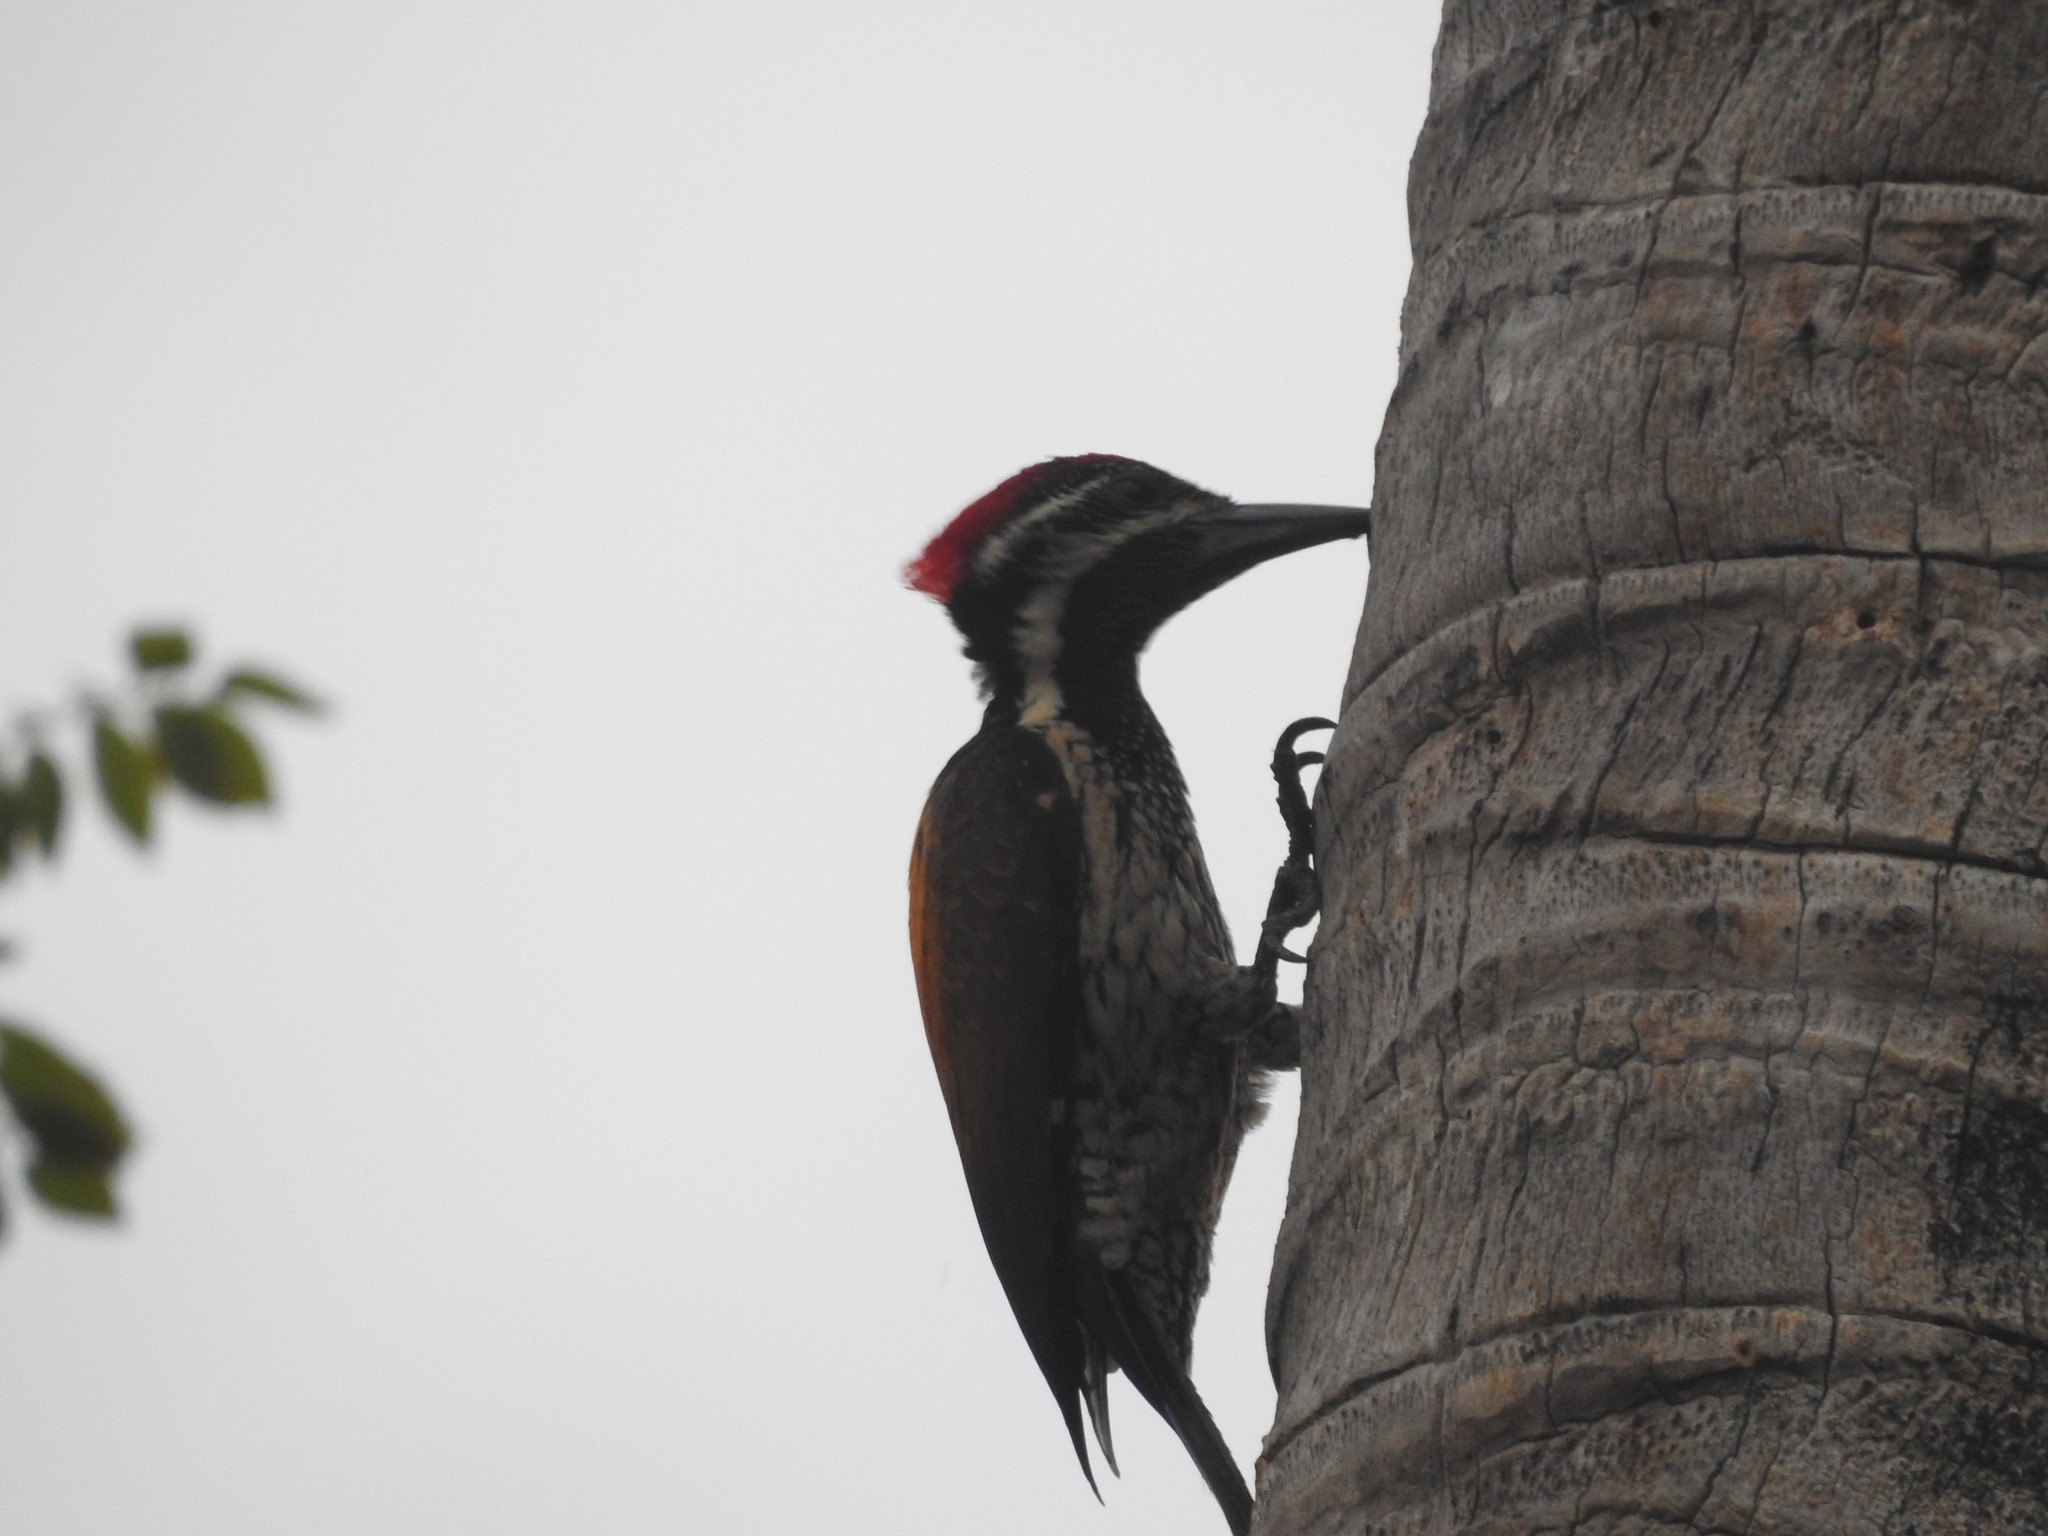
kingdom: Animalia
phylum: Chordata
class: Aves
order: Piciformes
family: Picidae
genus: Dinopium
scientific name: Dinopium benghalense
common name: Black-rumped flameback
